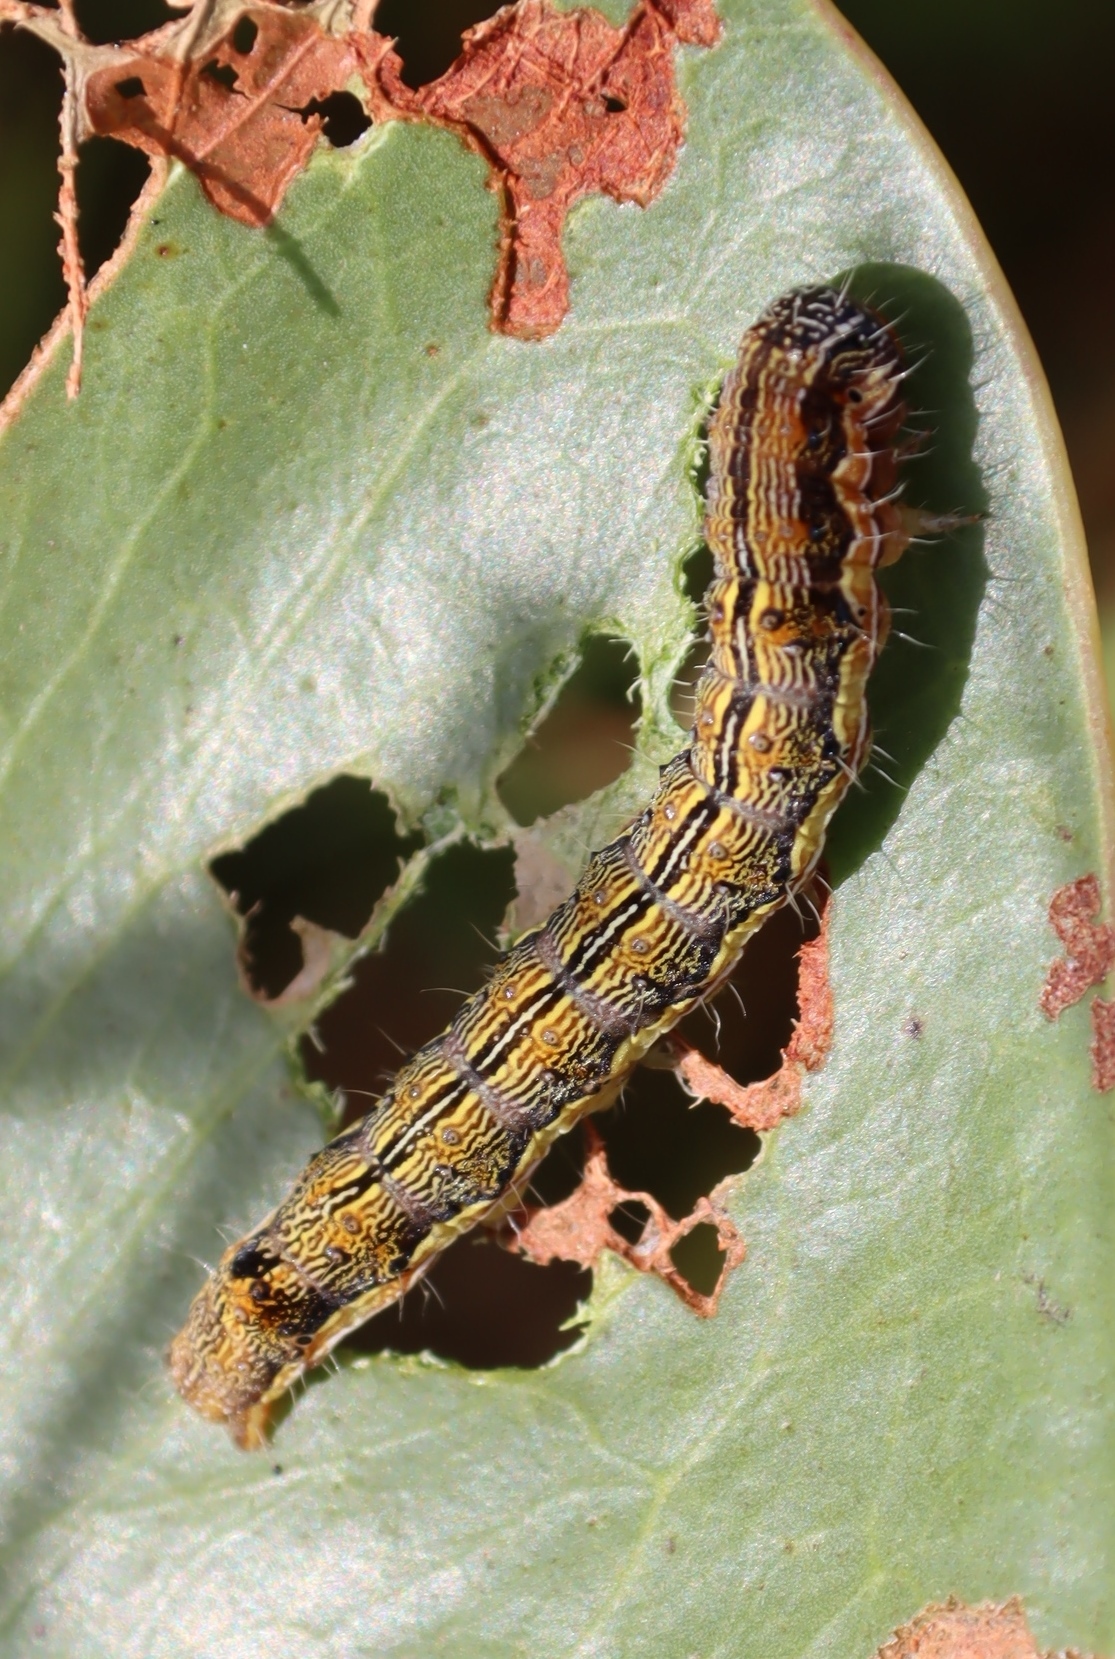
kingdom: Plantae
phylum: Tracheophyta
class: Magnoliopsida
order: Fabales
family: Fabaceae
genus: Acacia
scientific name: Acacia podalyriifolia
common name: Pearl wattle
